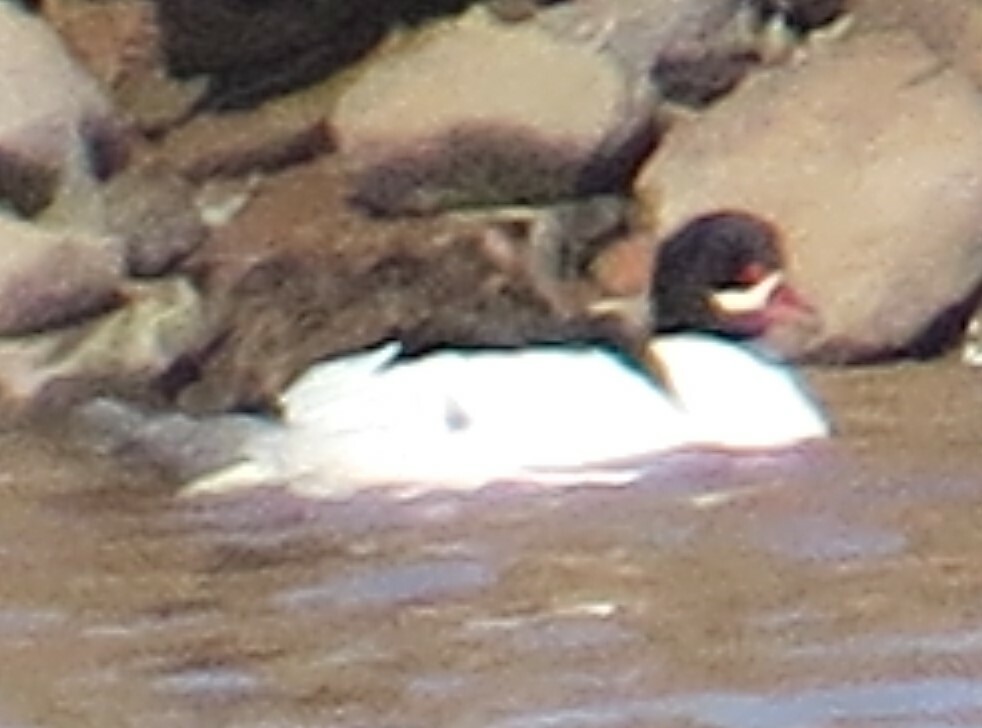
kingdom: Animalia
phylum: Chordata
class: Aves
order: Anseriformes
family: Anatidae
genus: Mergus
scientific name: Mergus merganser
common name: Common merganser
